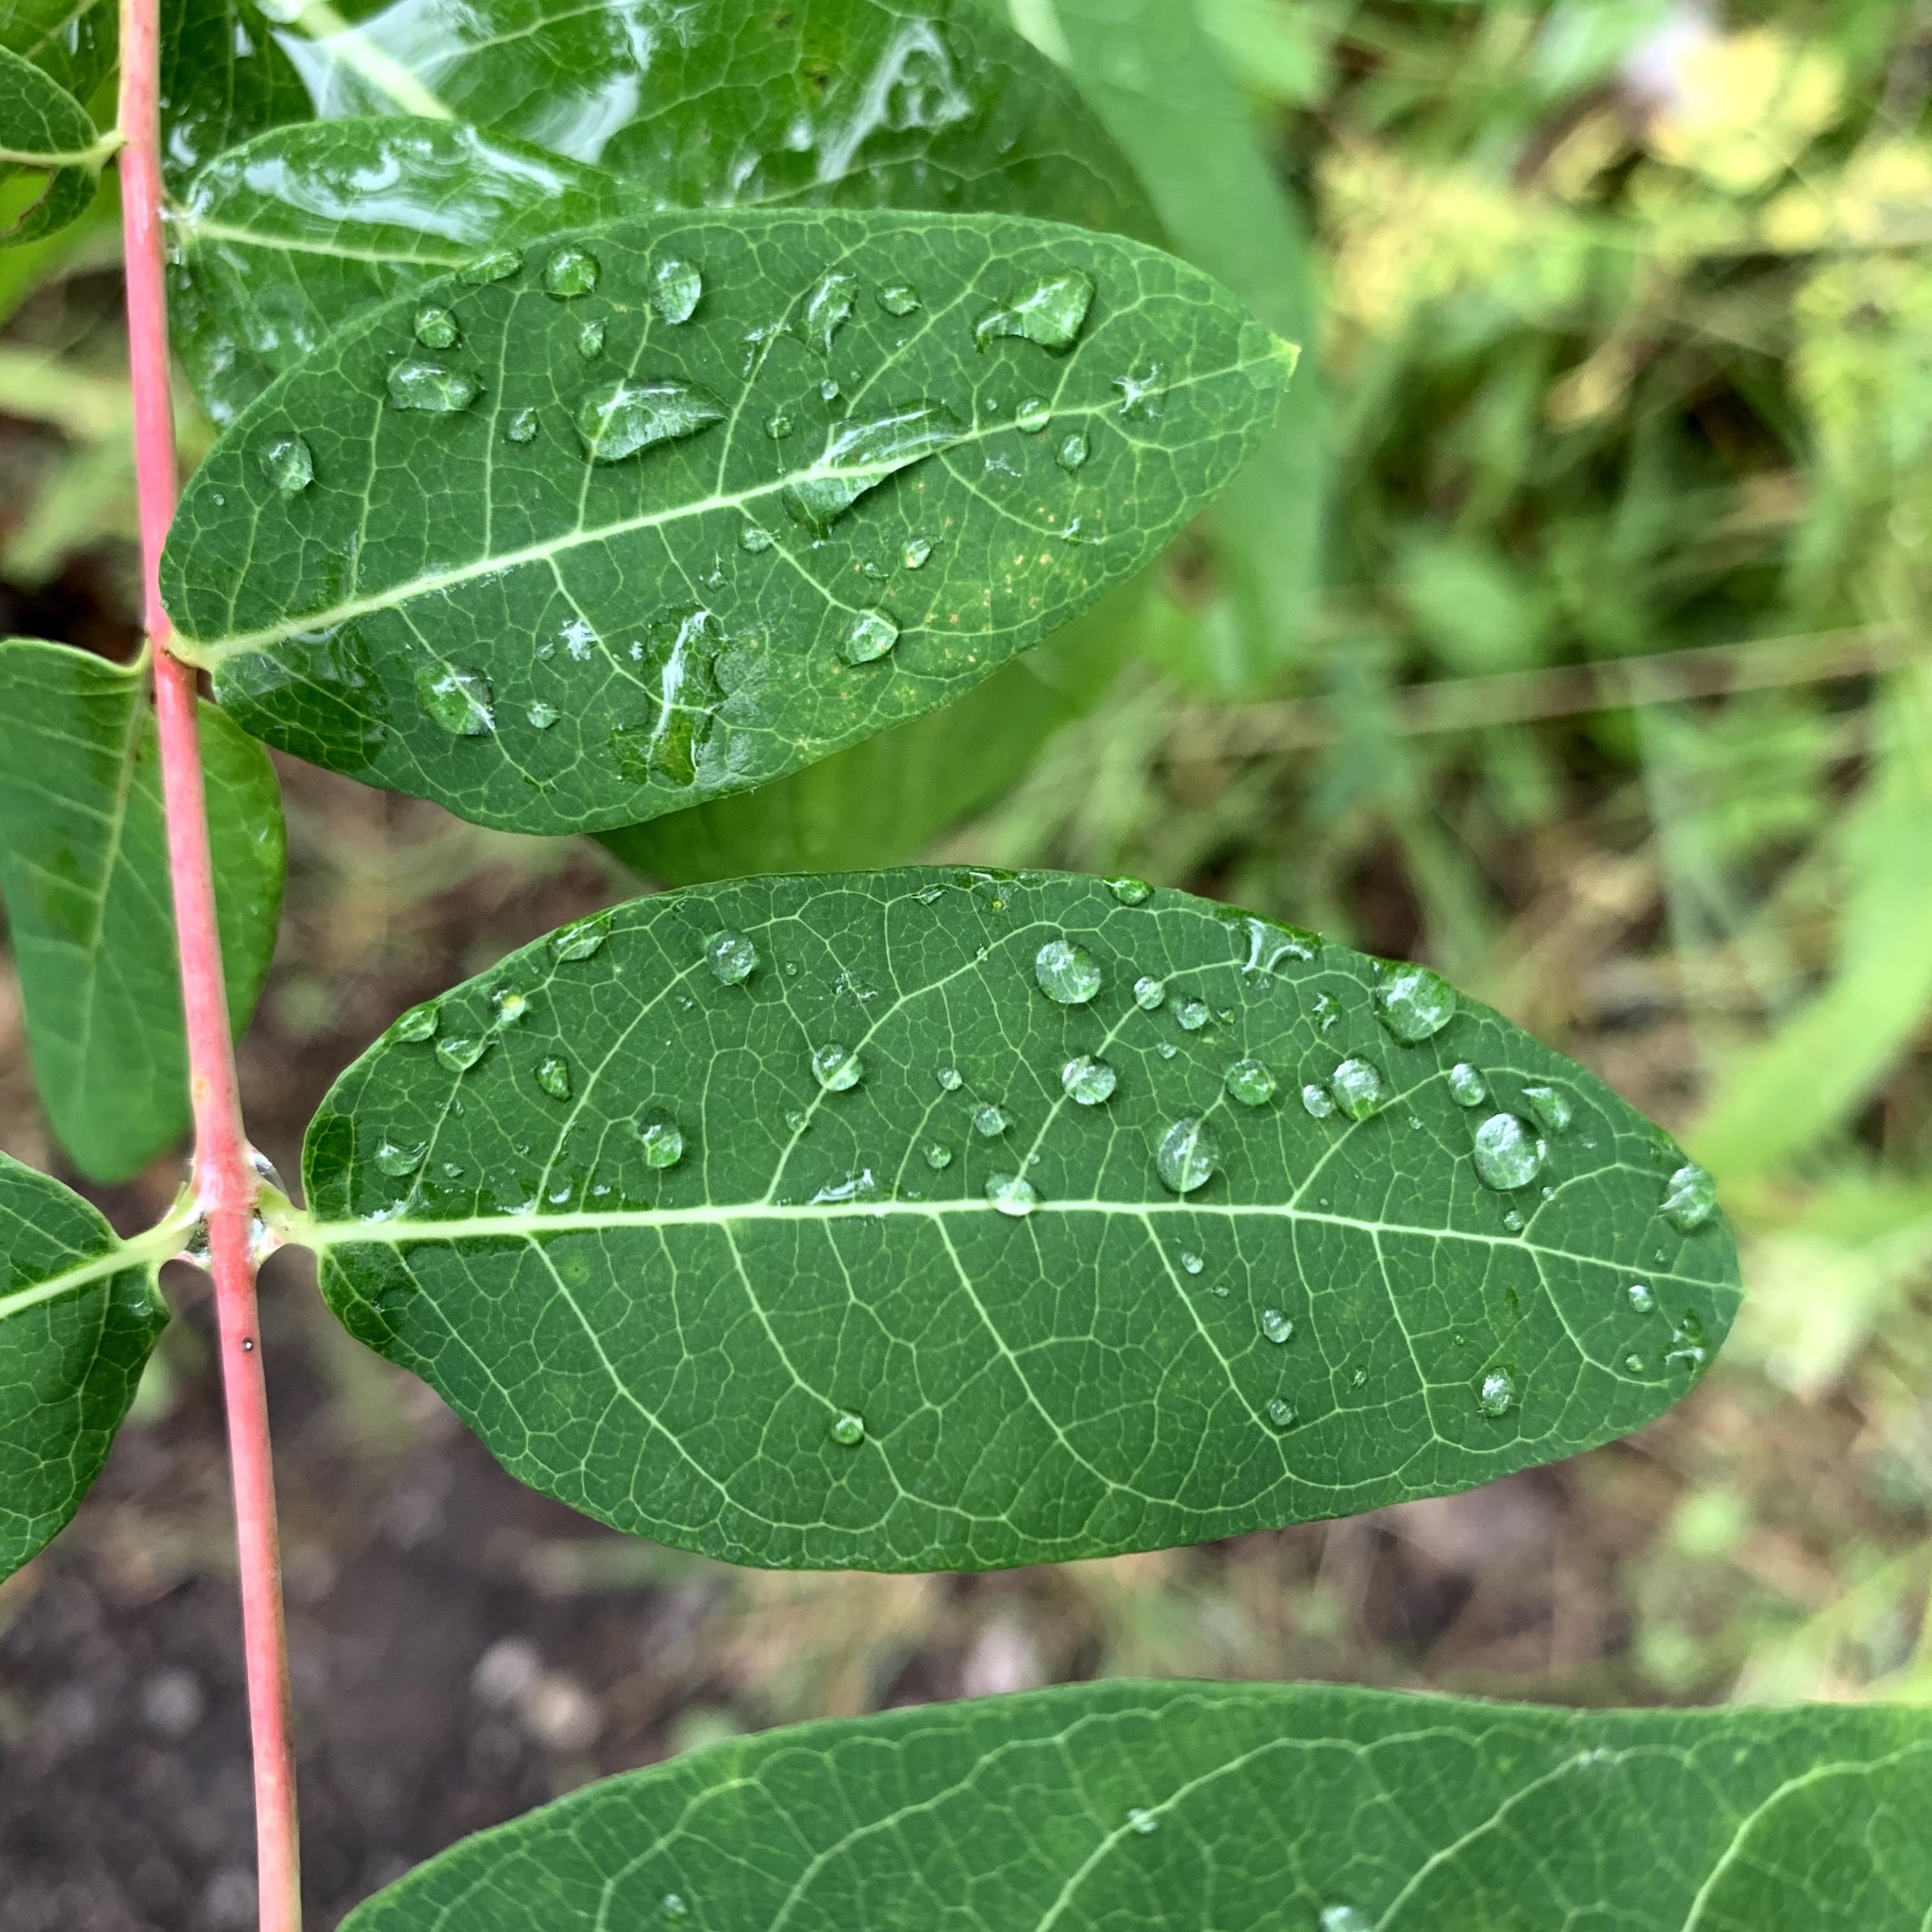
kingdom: Plantae
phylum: Tracheophyta
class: Magnoliopsida
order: Gentianales
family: Apocynaceae
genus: Apocynum
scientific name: Apocynum cannabinum
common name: Hemp dogbane
